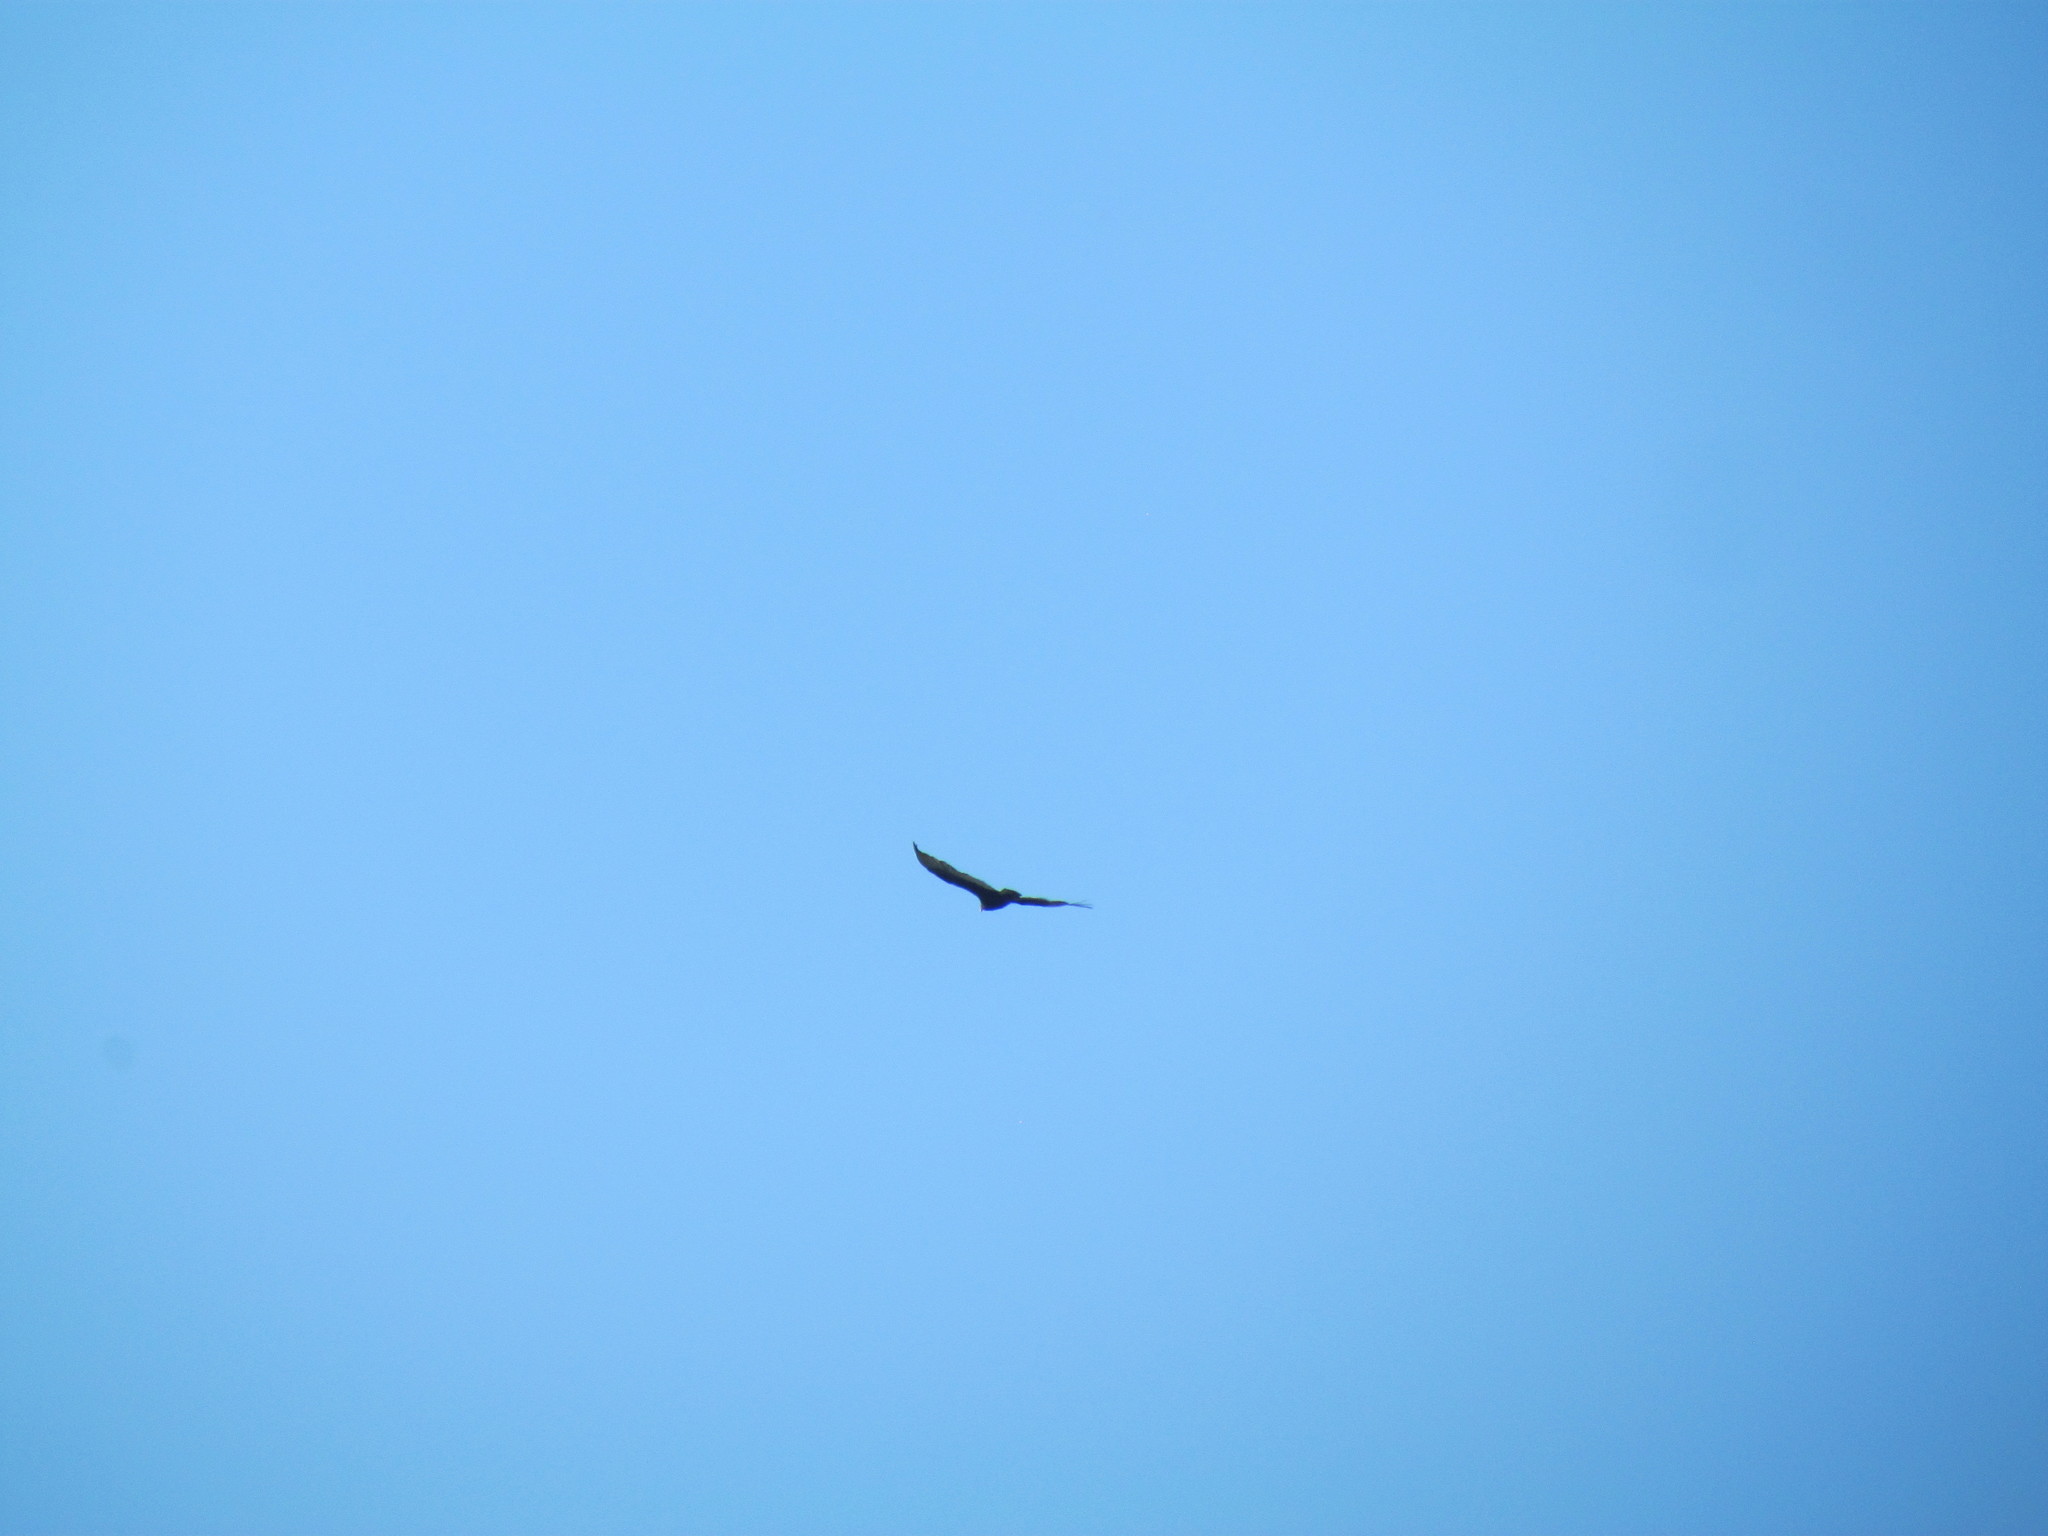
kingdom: Animalia
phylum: Chordata
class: Aves
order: Accipitriformes
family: Cathartidae
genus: Cathartes
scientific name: Cathartes aura
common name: Turkey vulture
